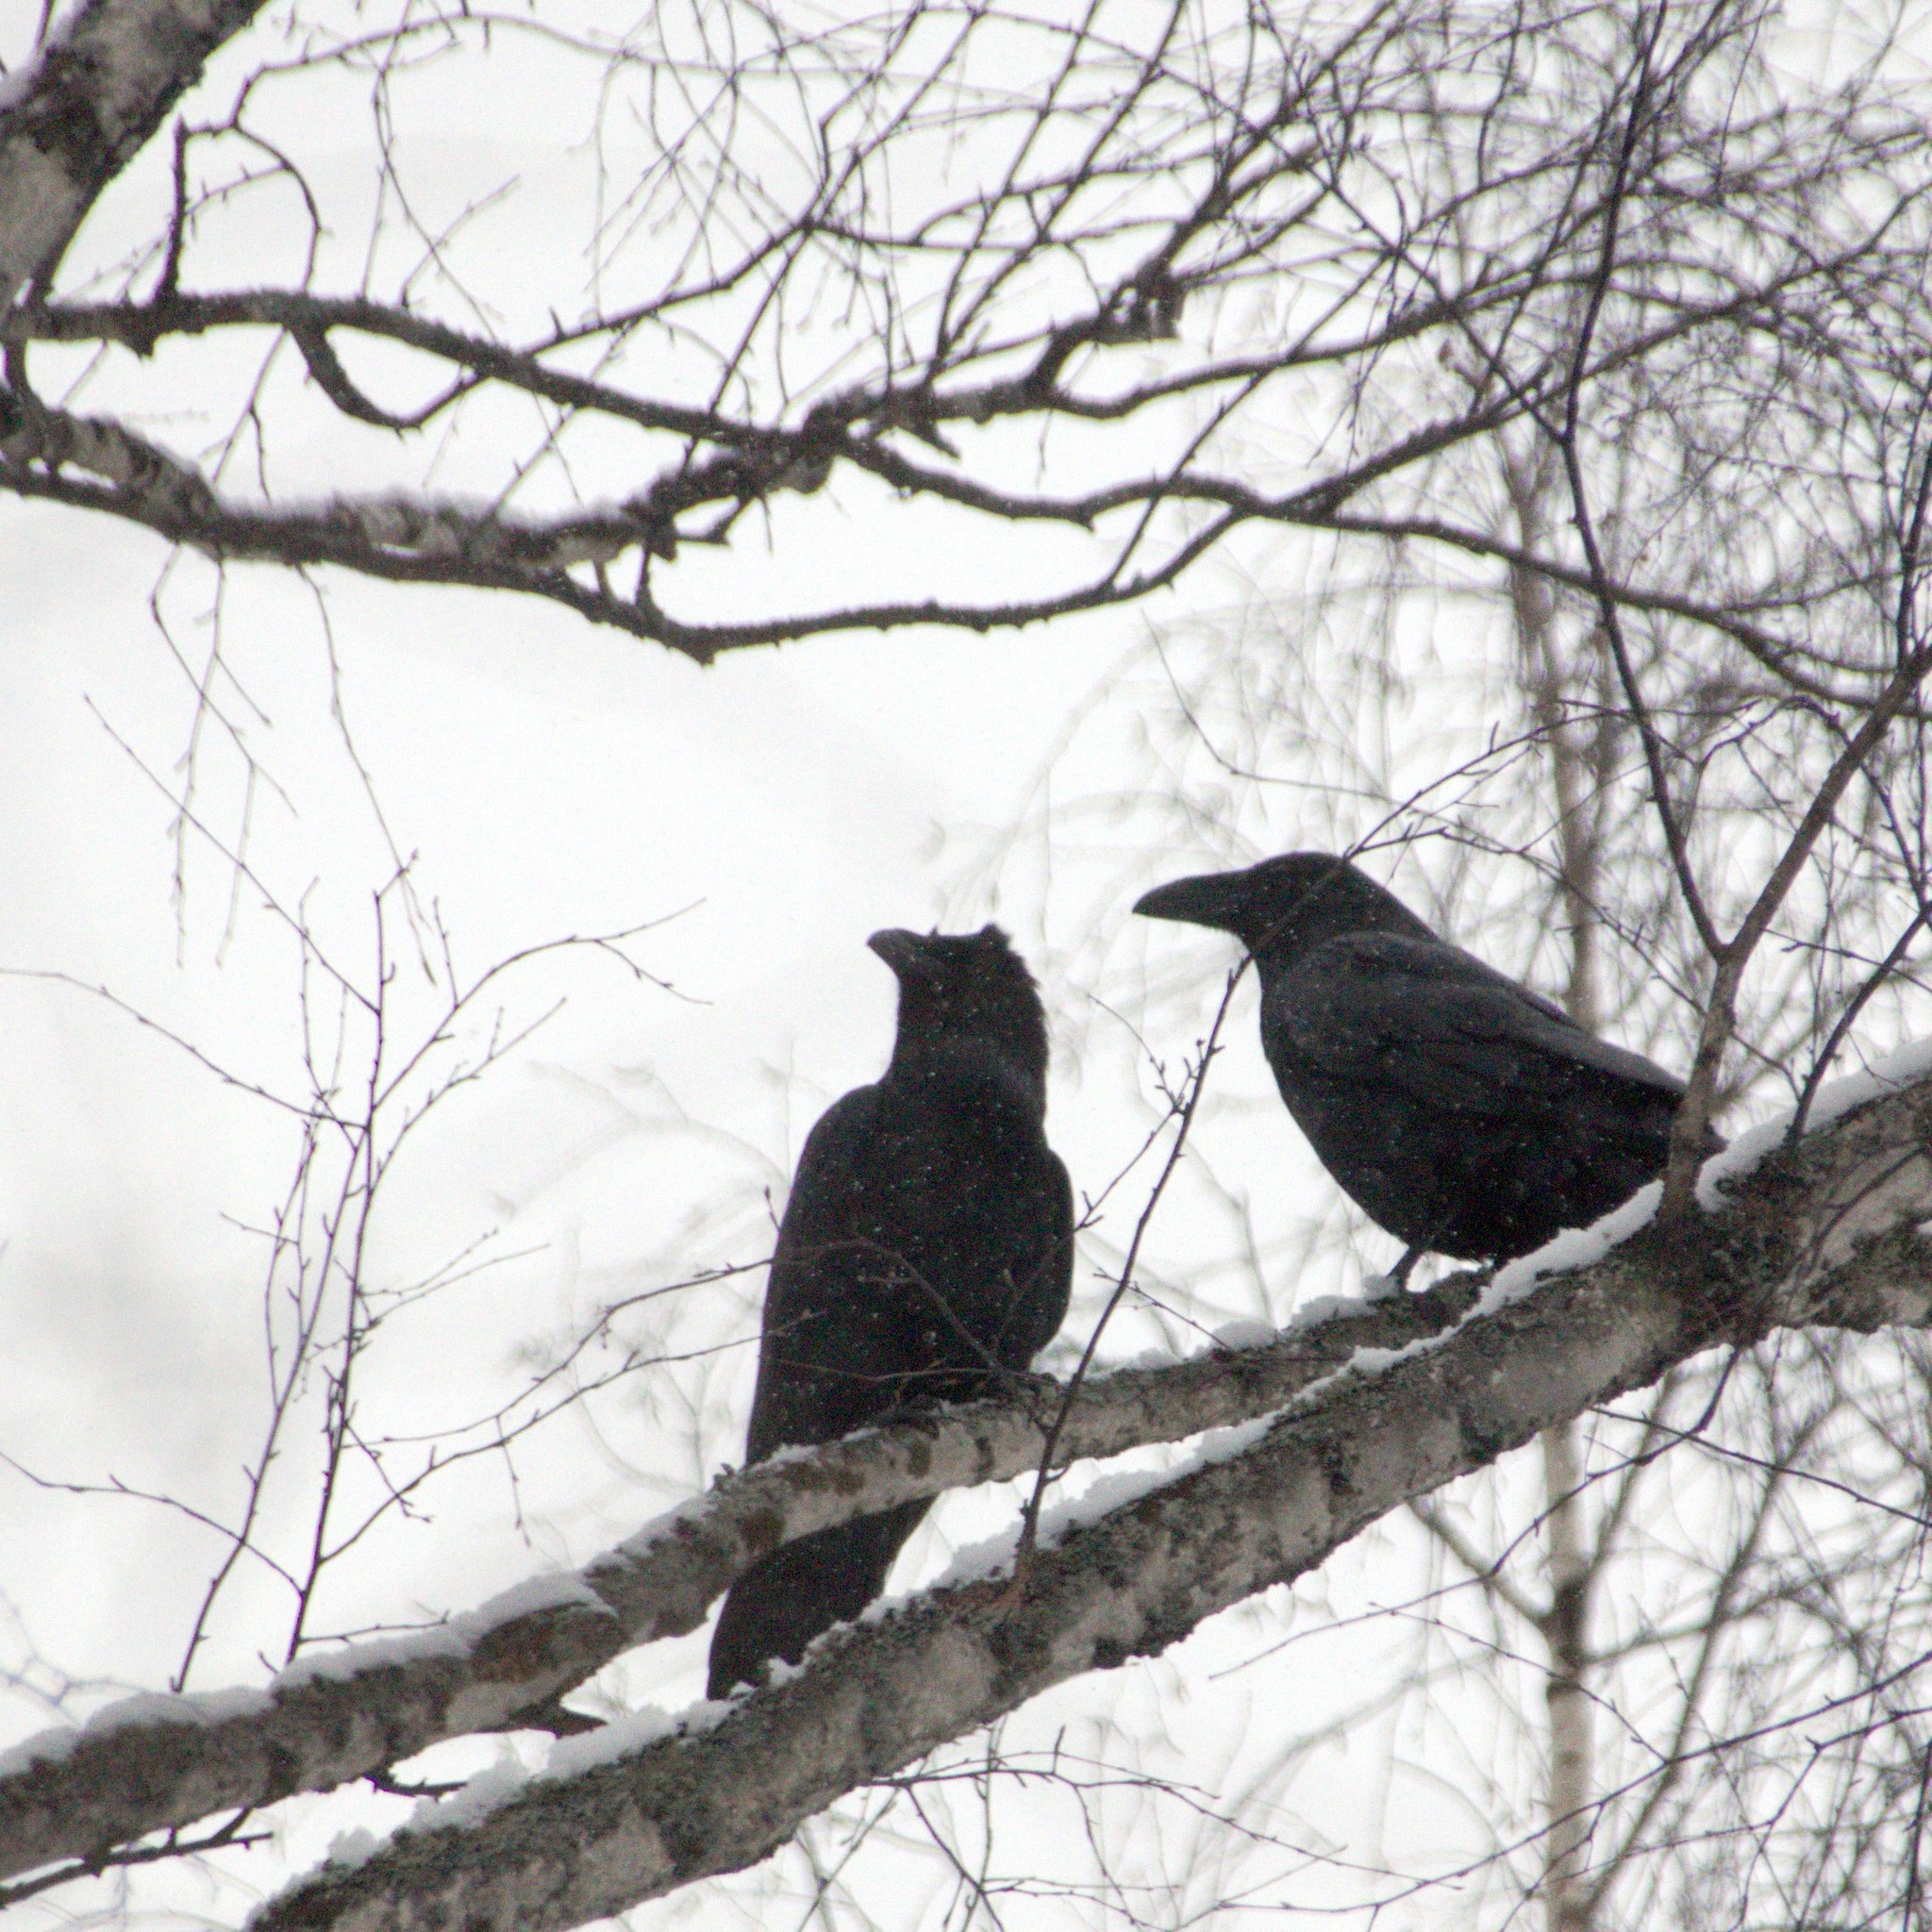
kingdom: Animalia
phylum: Chordata
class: Aves
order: Passeriformes
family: Corvidae
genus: Corvus
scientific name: Corvus corax
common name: Common raven
